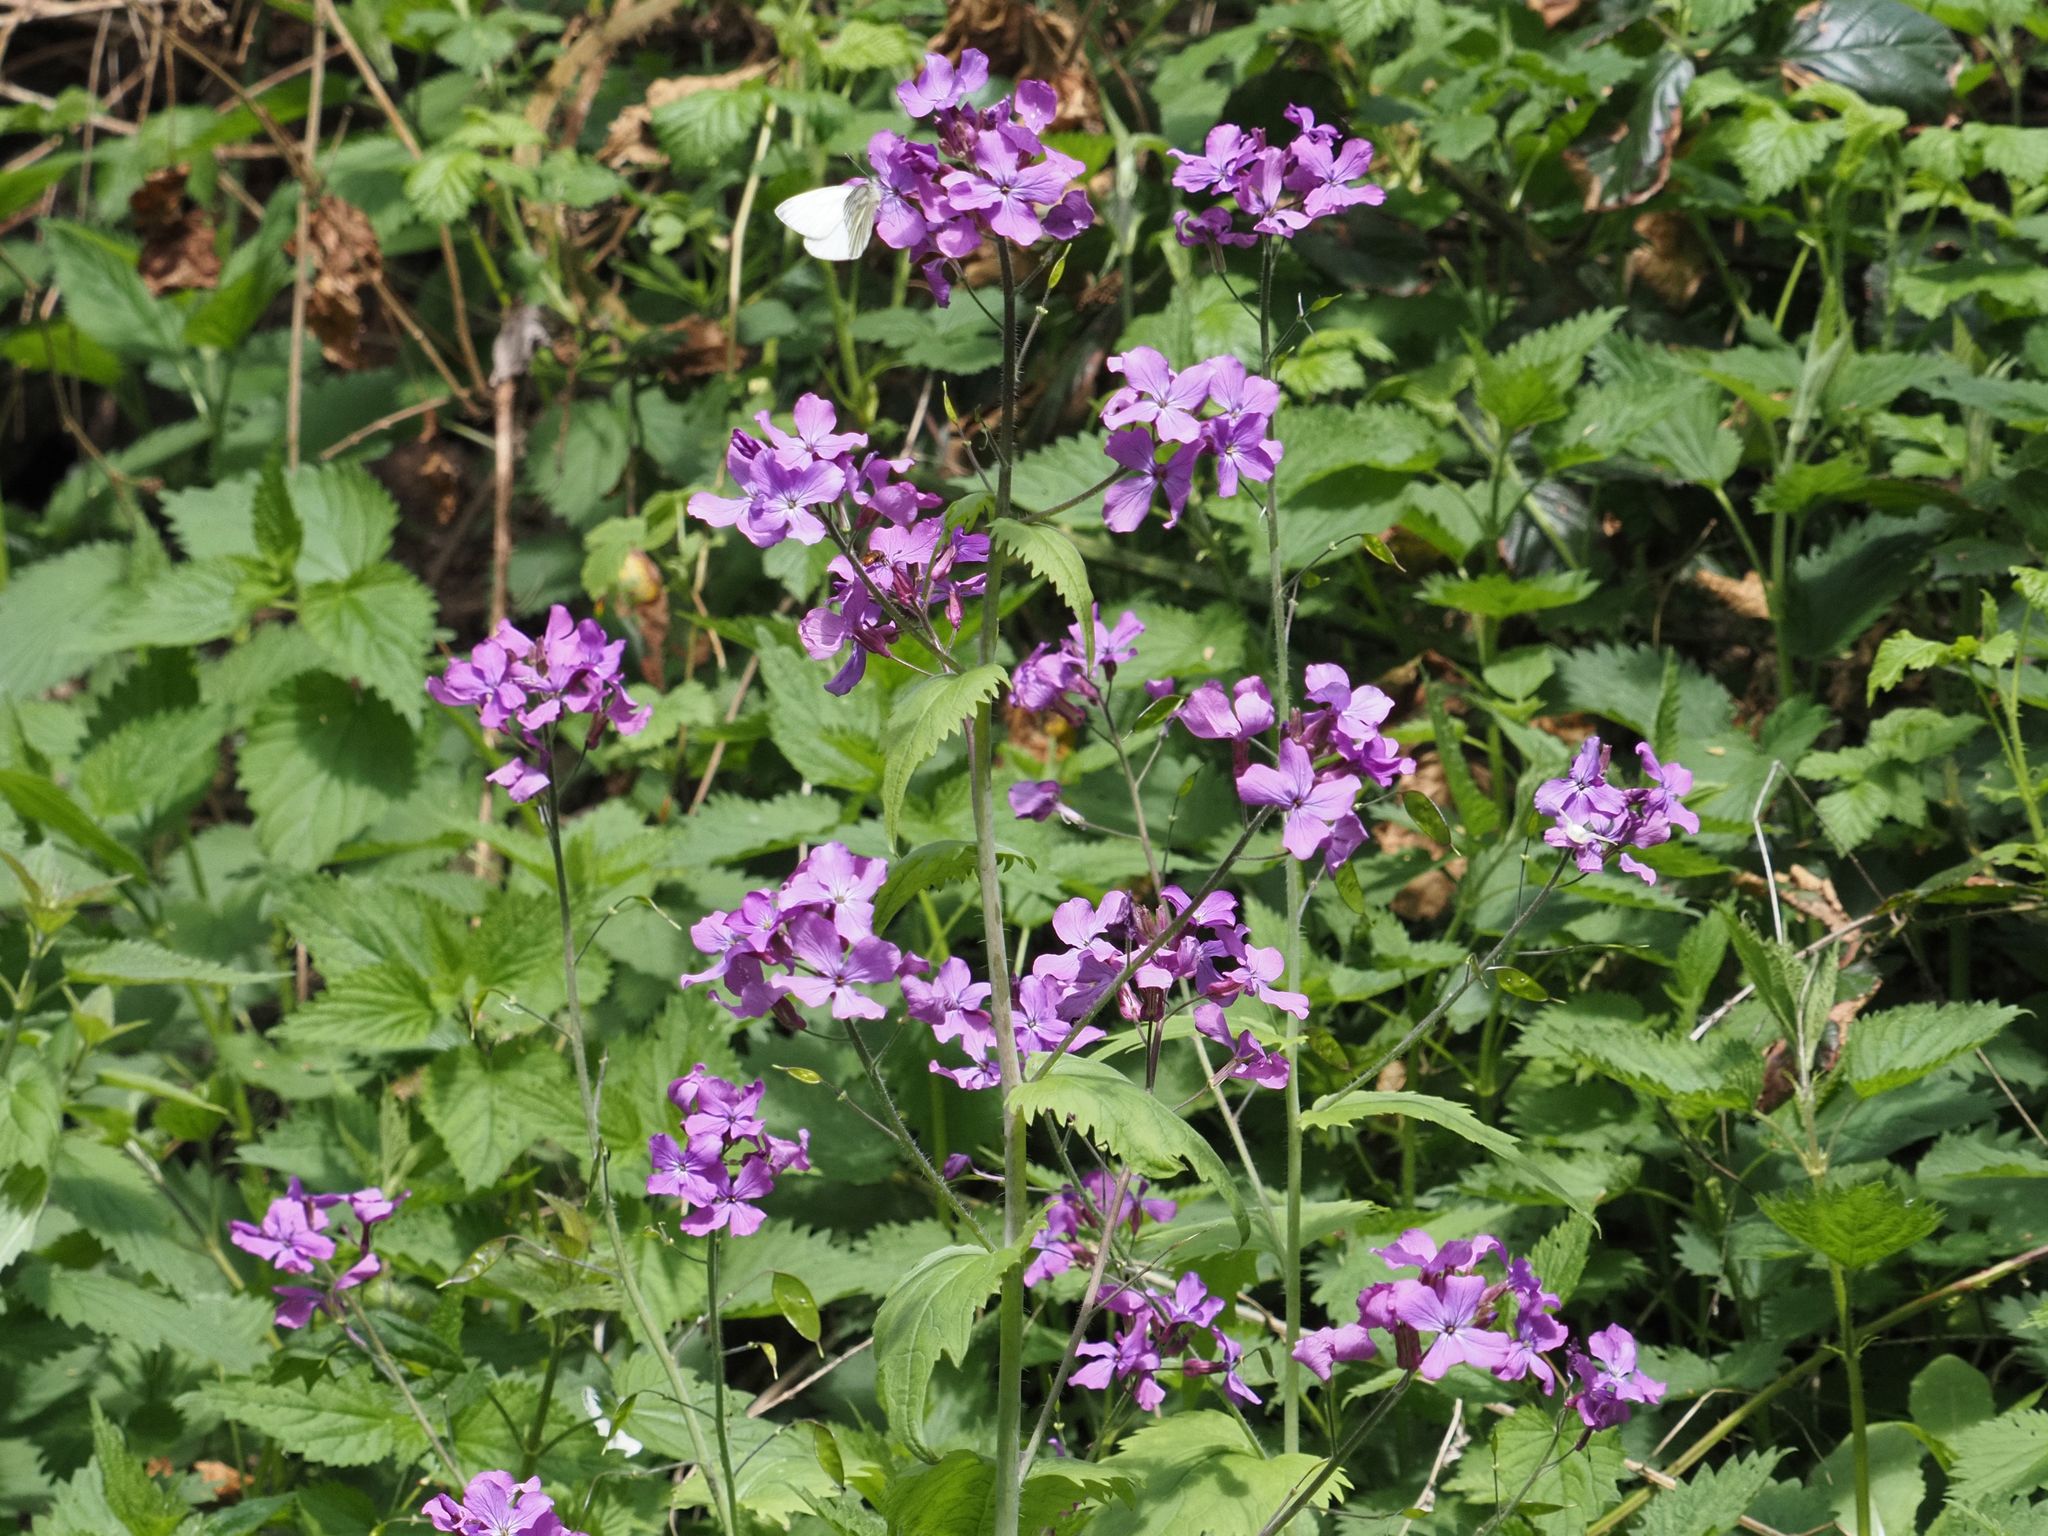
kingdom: Plantae
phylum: Tracheophyta
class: Magnoliopsida
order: Brassicales
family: Brassicaceae
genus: Lunaria
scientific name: Lunaria annua
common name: Honesty
